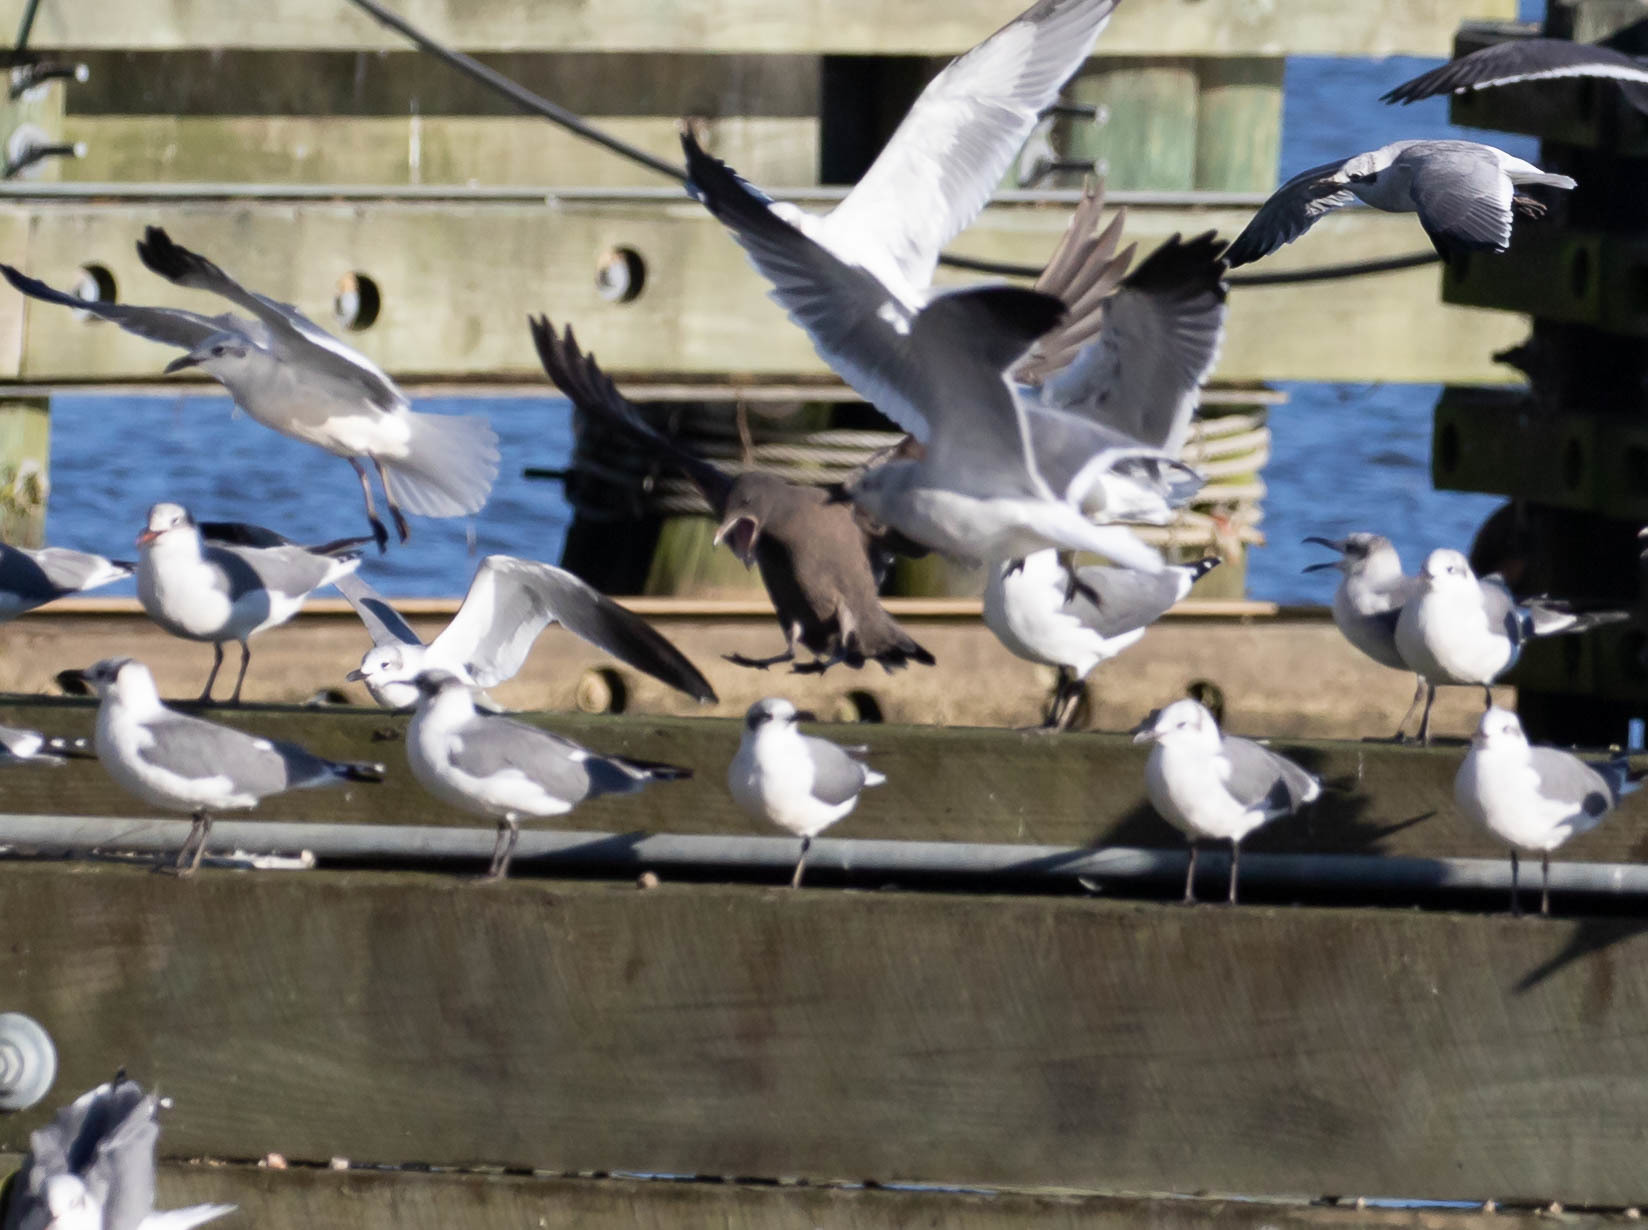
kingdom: Animalia
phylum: Chordata
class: Aves
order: Charadriiformes
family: Laridae
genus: Larus
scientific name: Larus heermanni
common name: Heermann's gull
